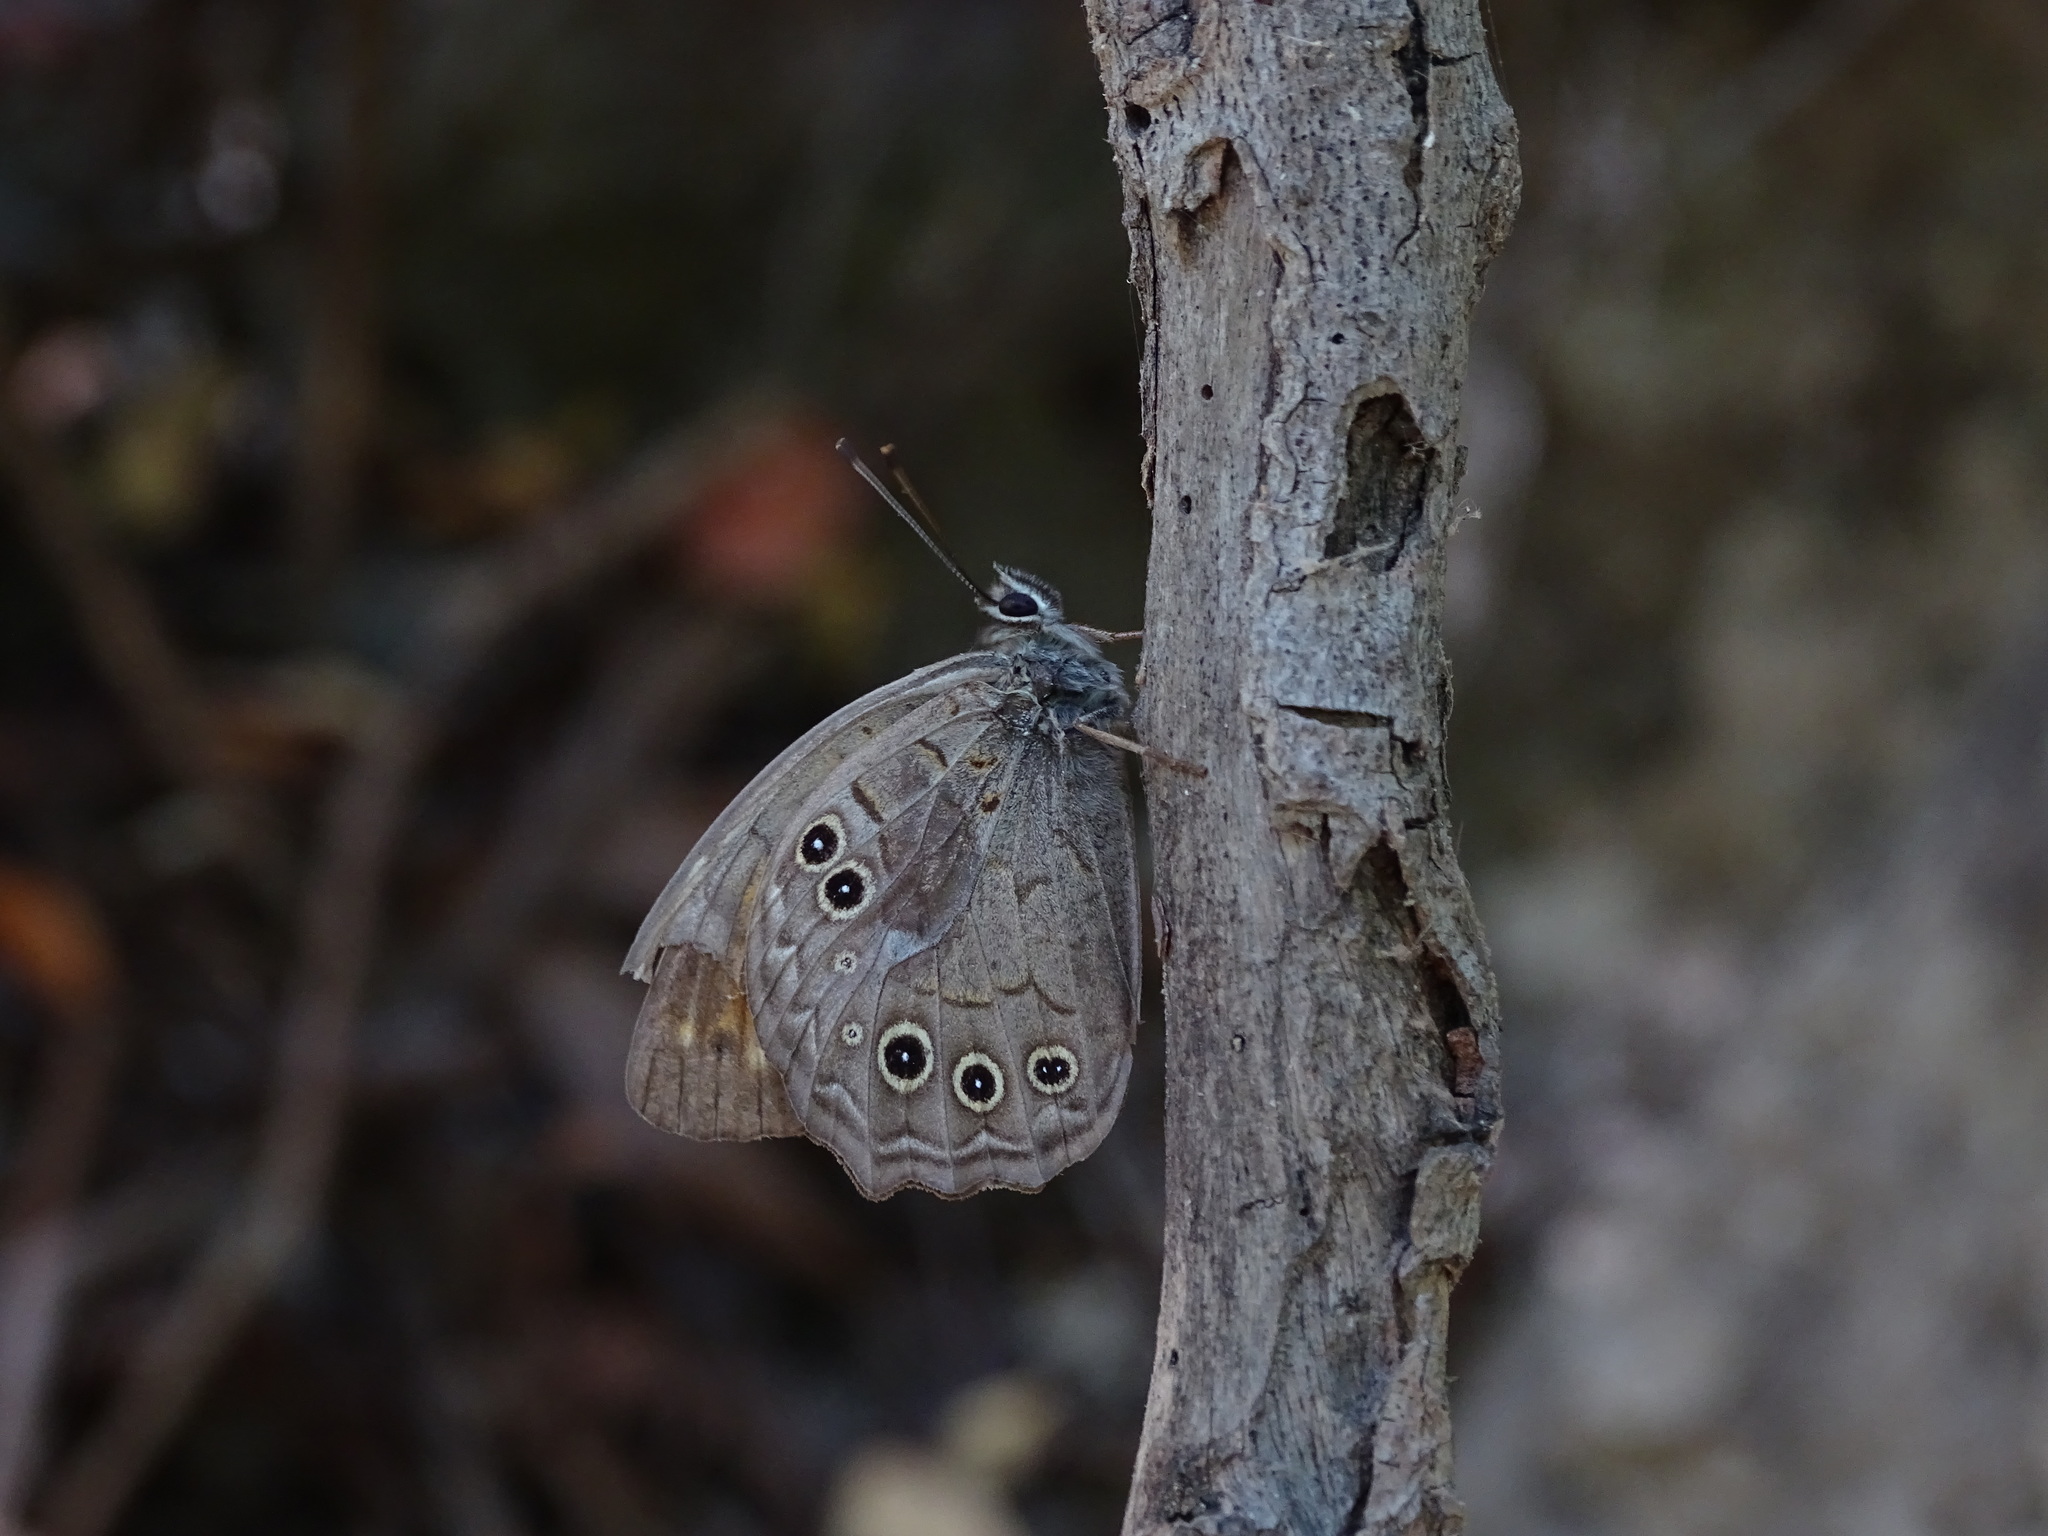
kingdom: Animalia
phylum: Arthropoda
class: Insecta
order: Lepidoptera
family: Nymphalidae
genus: Kirinia
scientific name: Kirinia roxelana
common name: Lattice brown
